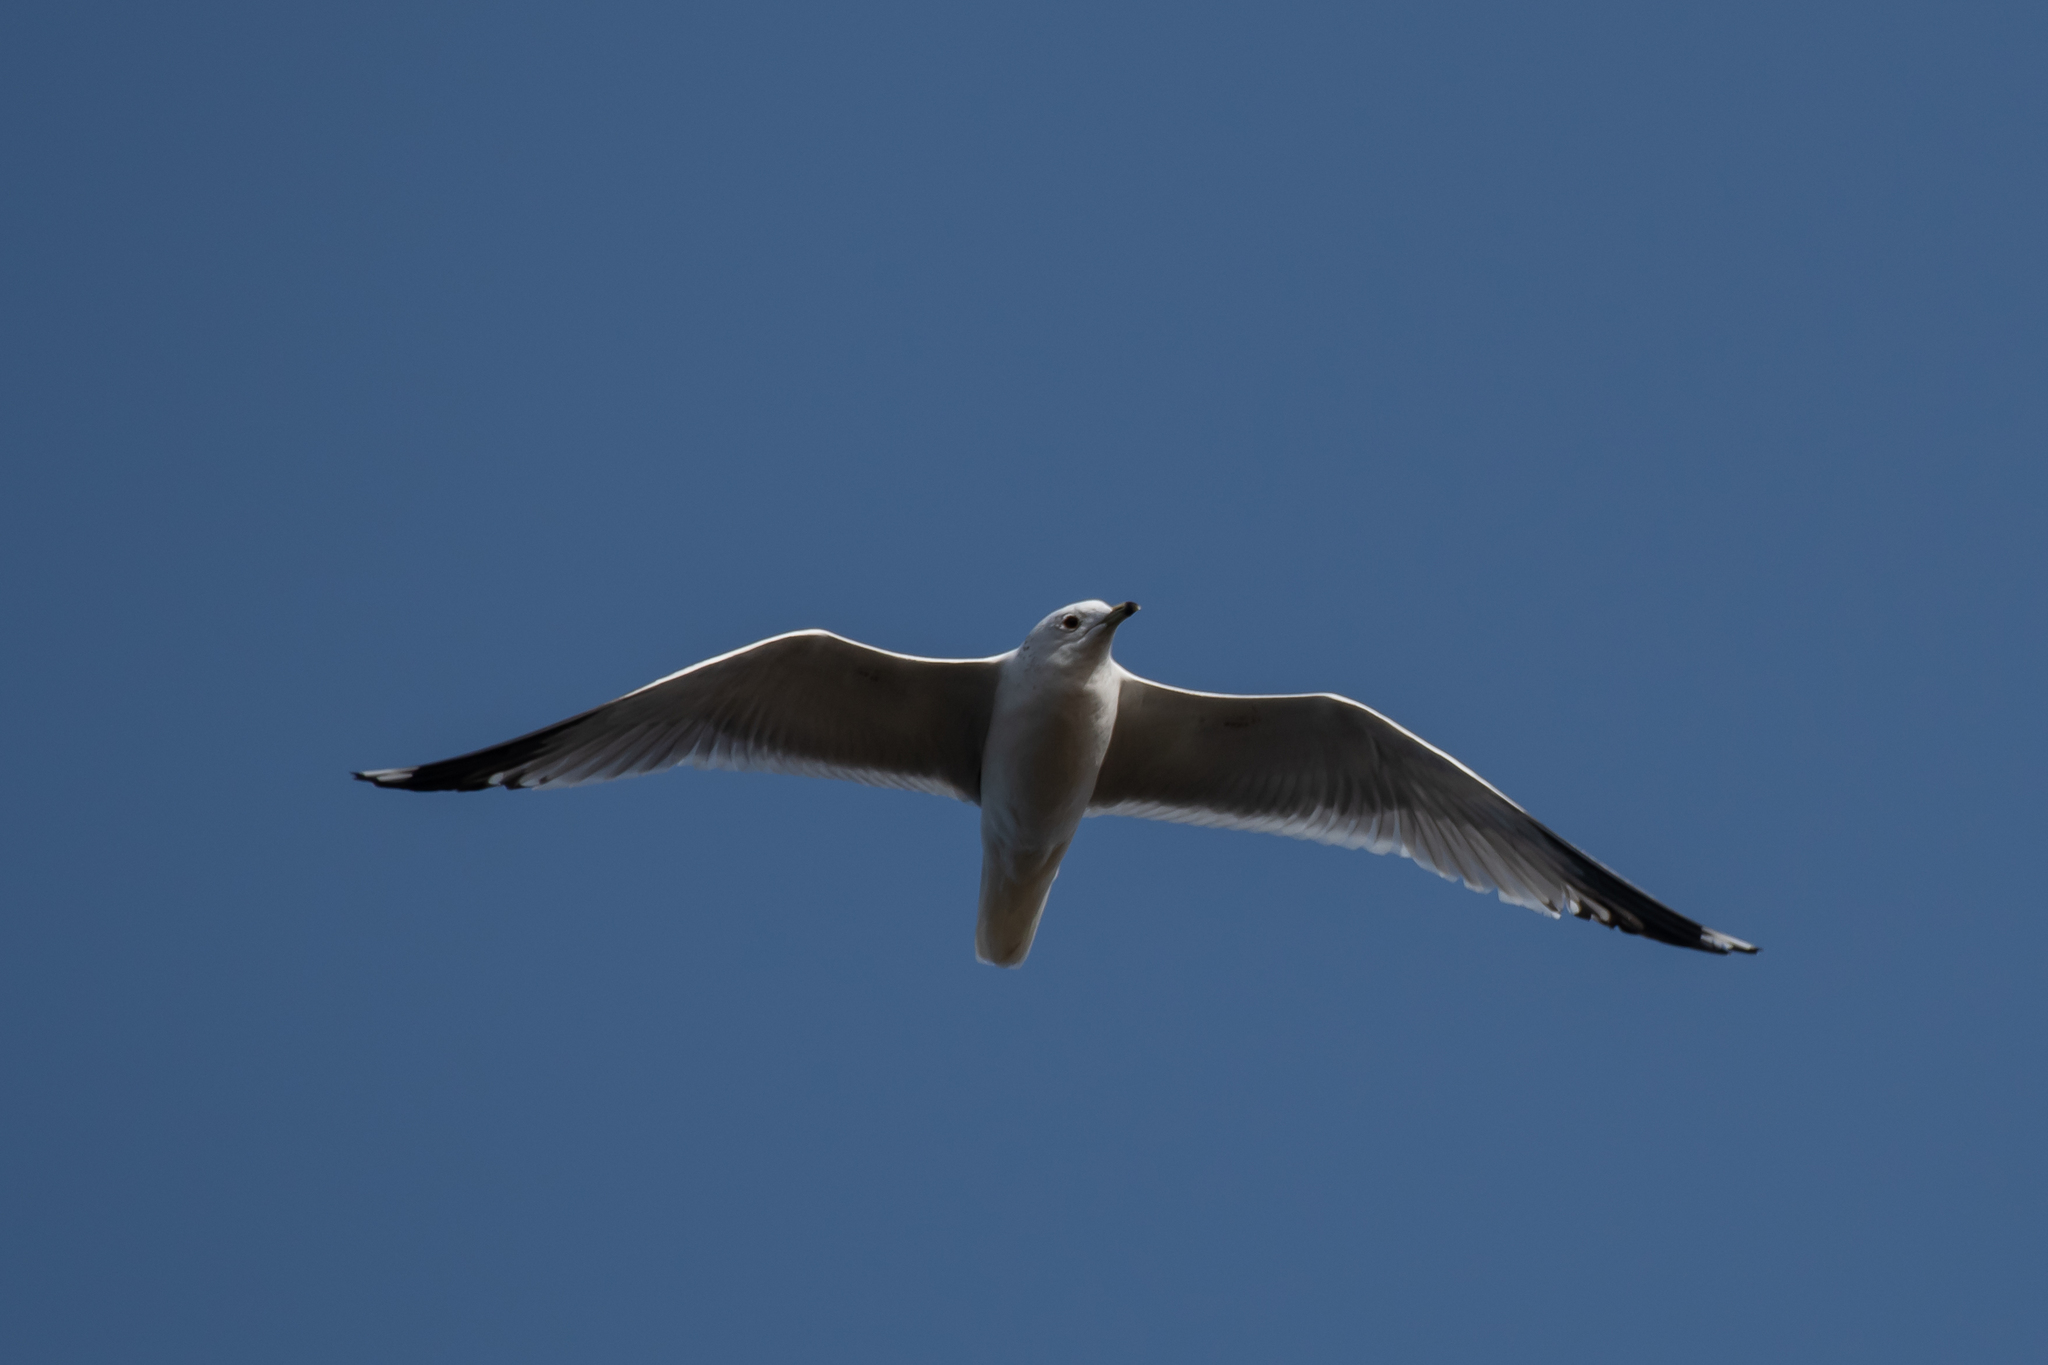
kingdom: Animalia
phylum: Chordata
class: Aves
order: Charadriiformes
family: Laridae
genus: Larus
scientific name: Larus canus
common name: Mew gull
